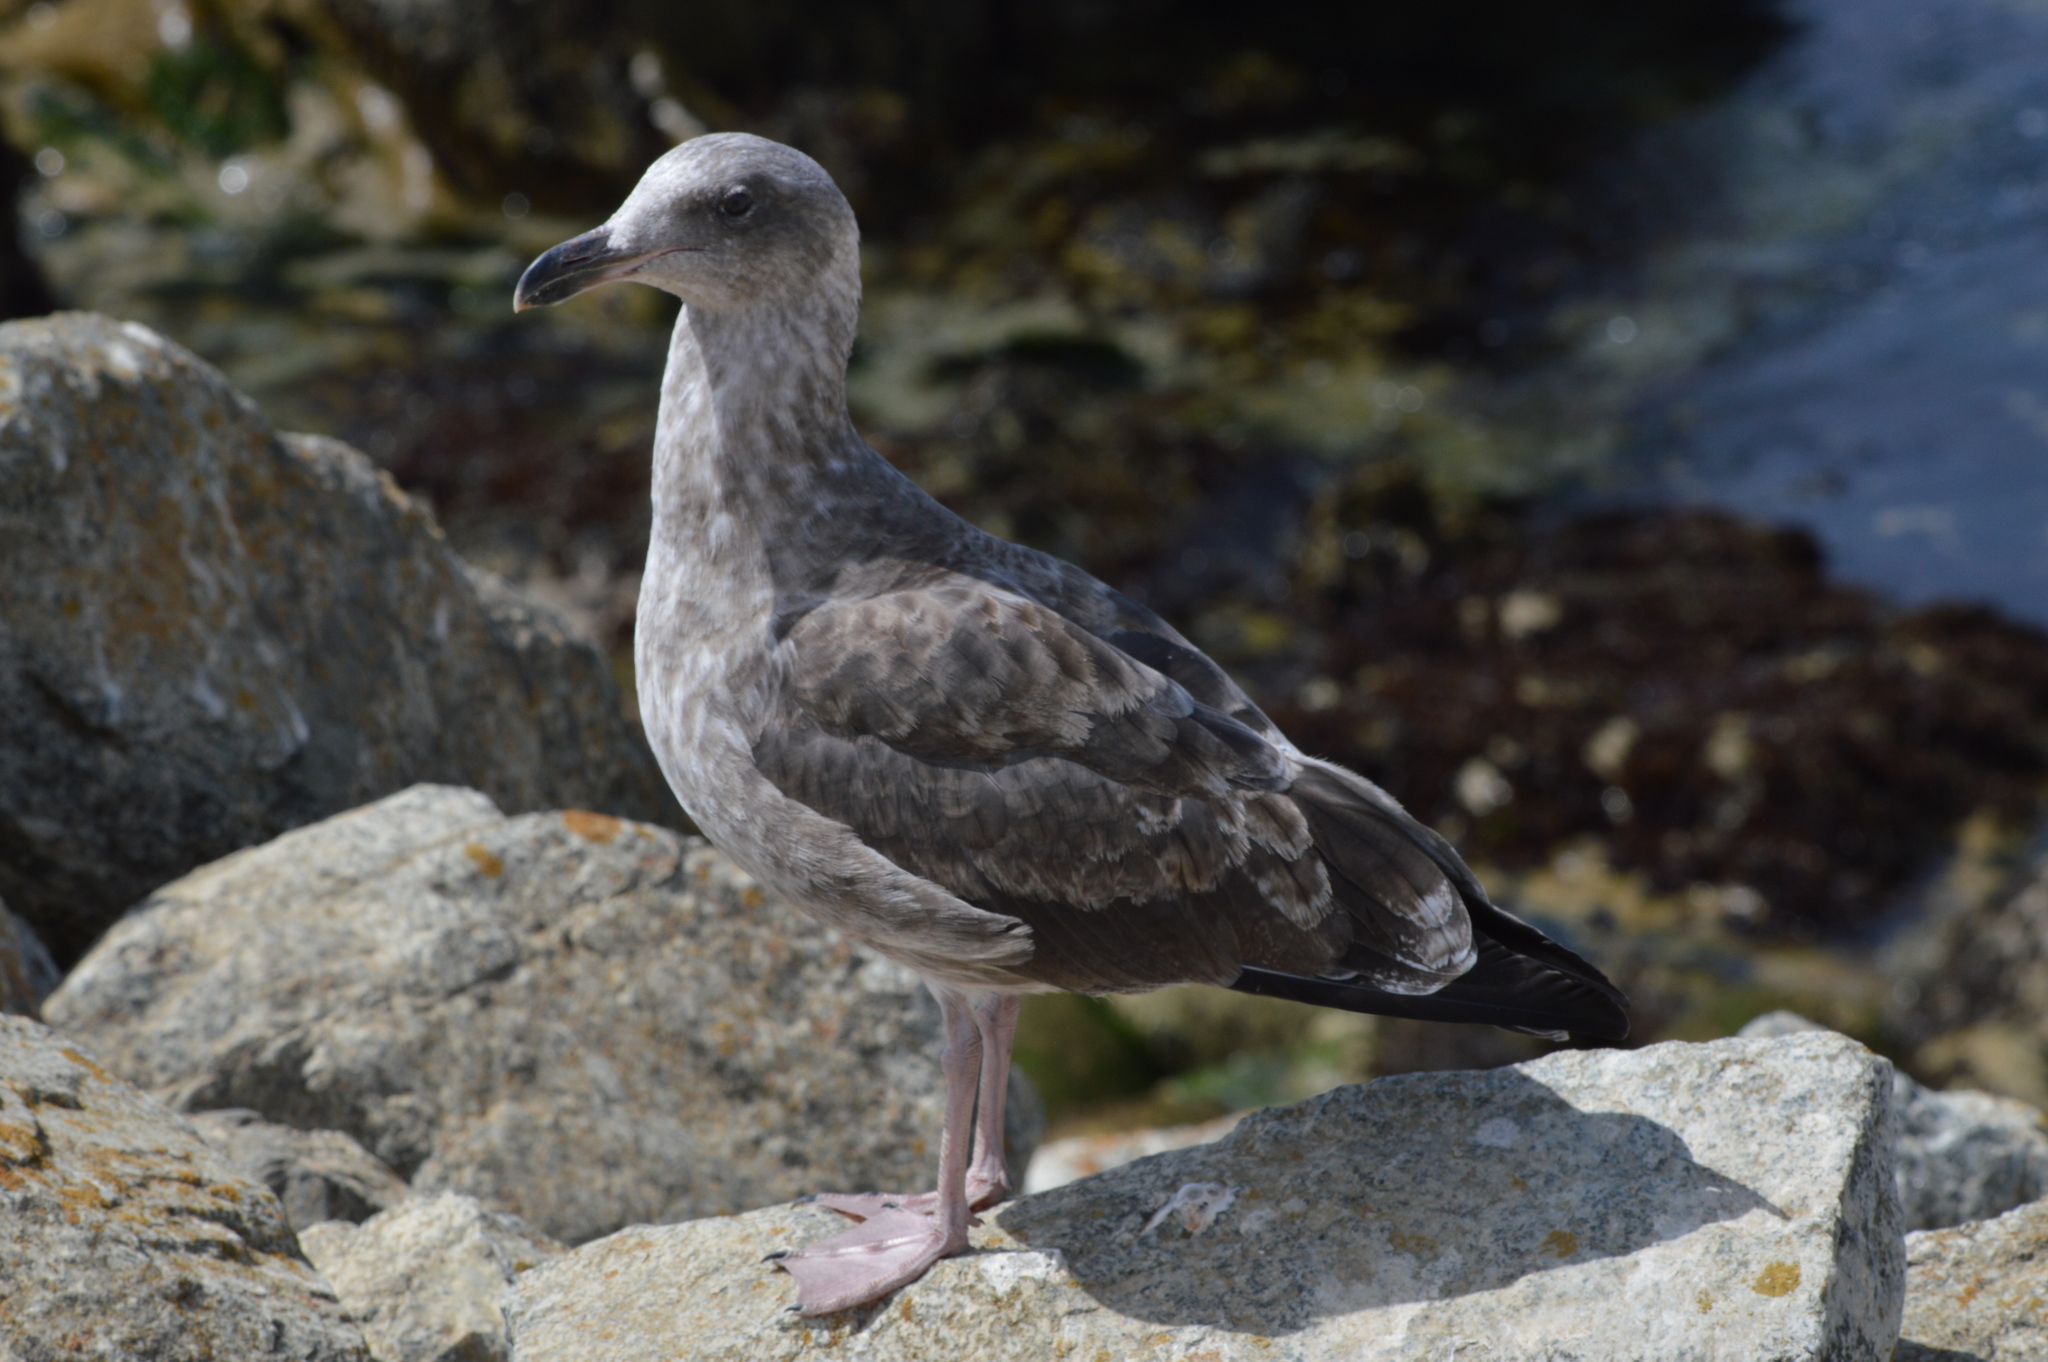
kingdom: Animalia
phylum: Chordata
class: Aves
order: Charadriiformes
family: Laridae
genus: Larus
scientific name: Larus occidentalis
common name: Western gull
